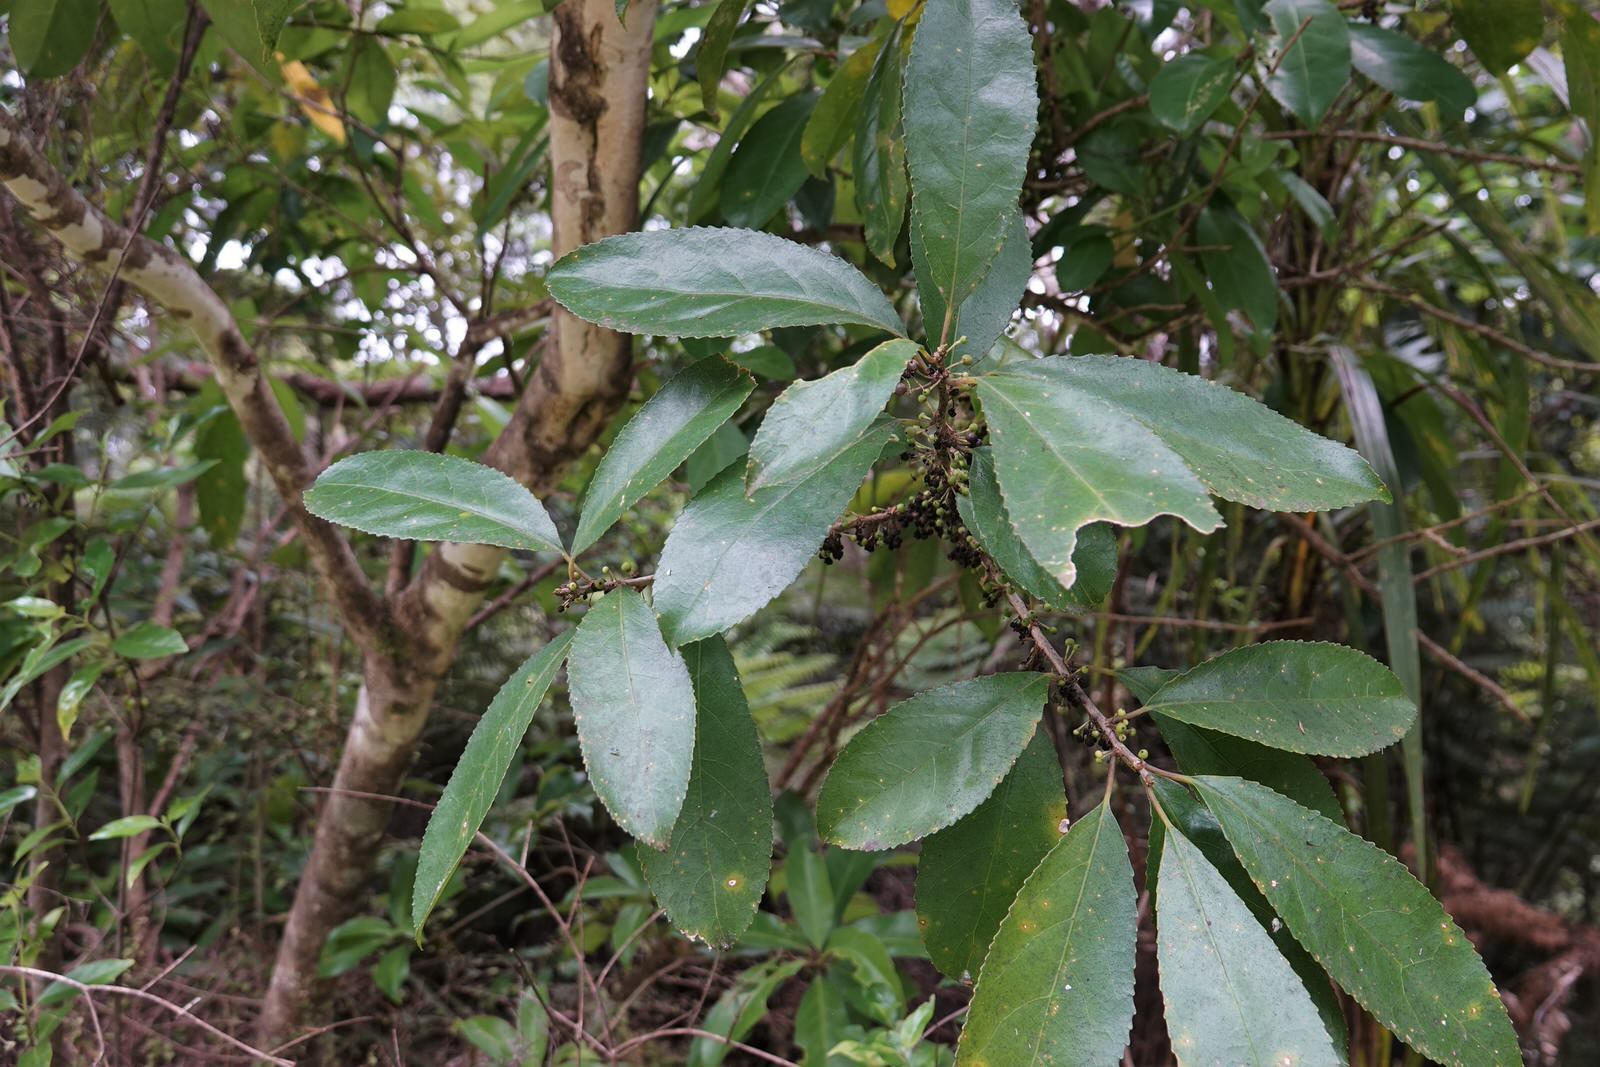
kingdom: Plantae
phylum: Tracheophyta
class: Magnoliopsida
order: Malpighiales
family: Violaceae
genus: Melicytus
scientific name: Melicytus ramiflorus
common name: Mahoe
